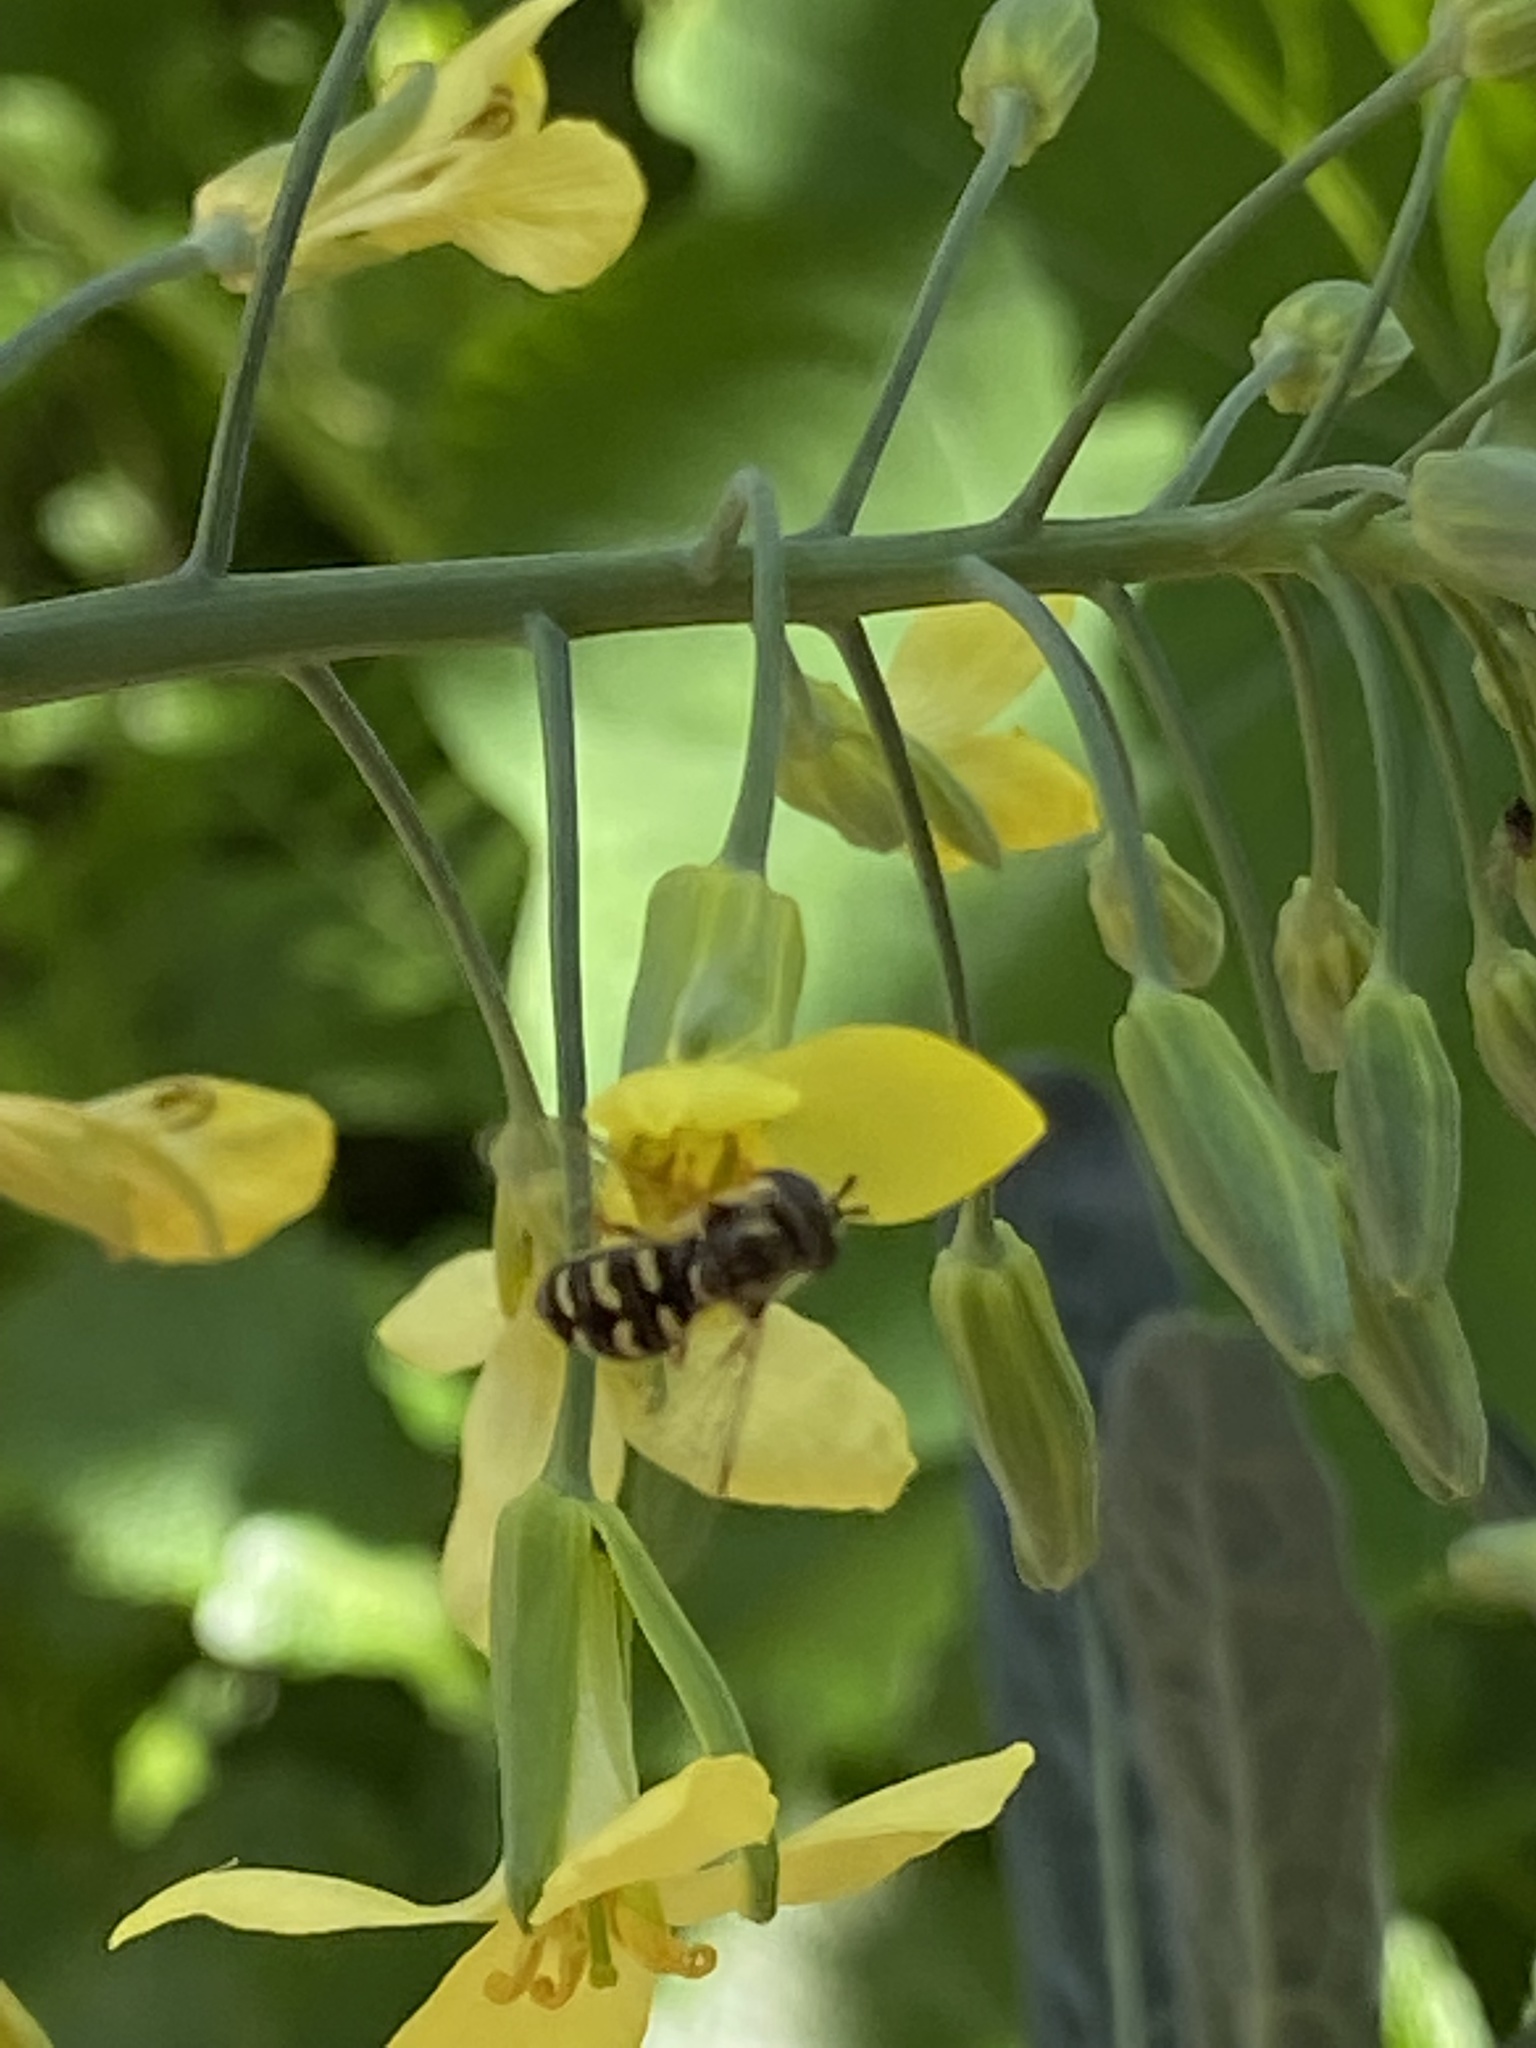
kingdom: Animalia
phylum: Arthropoda
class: Insecta
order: Diptera
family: Syrphidae
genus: Eupeodes
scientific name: Eupeodes volucris
